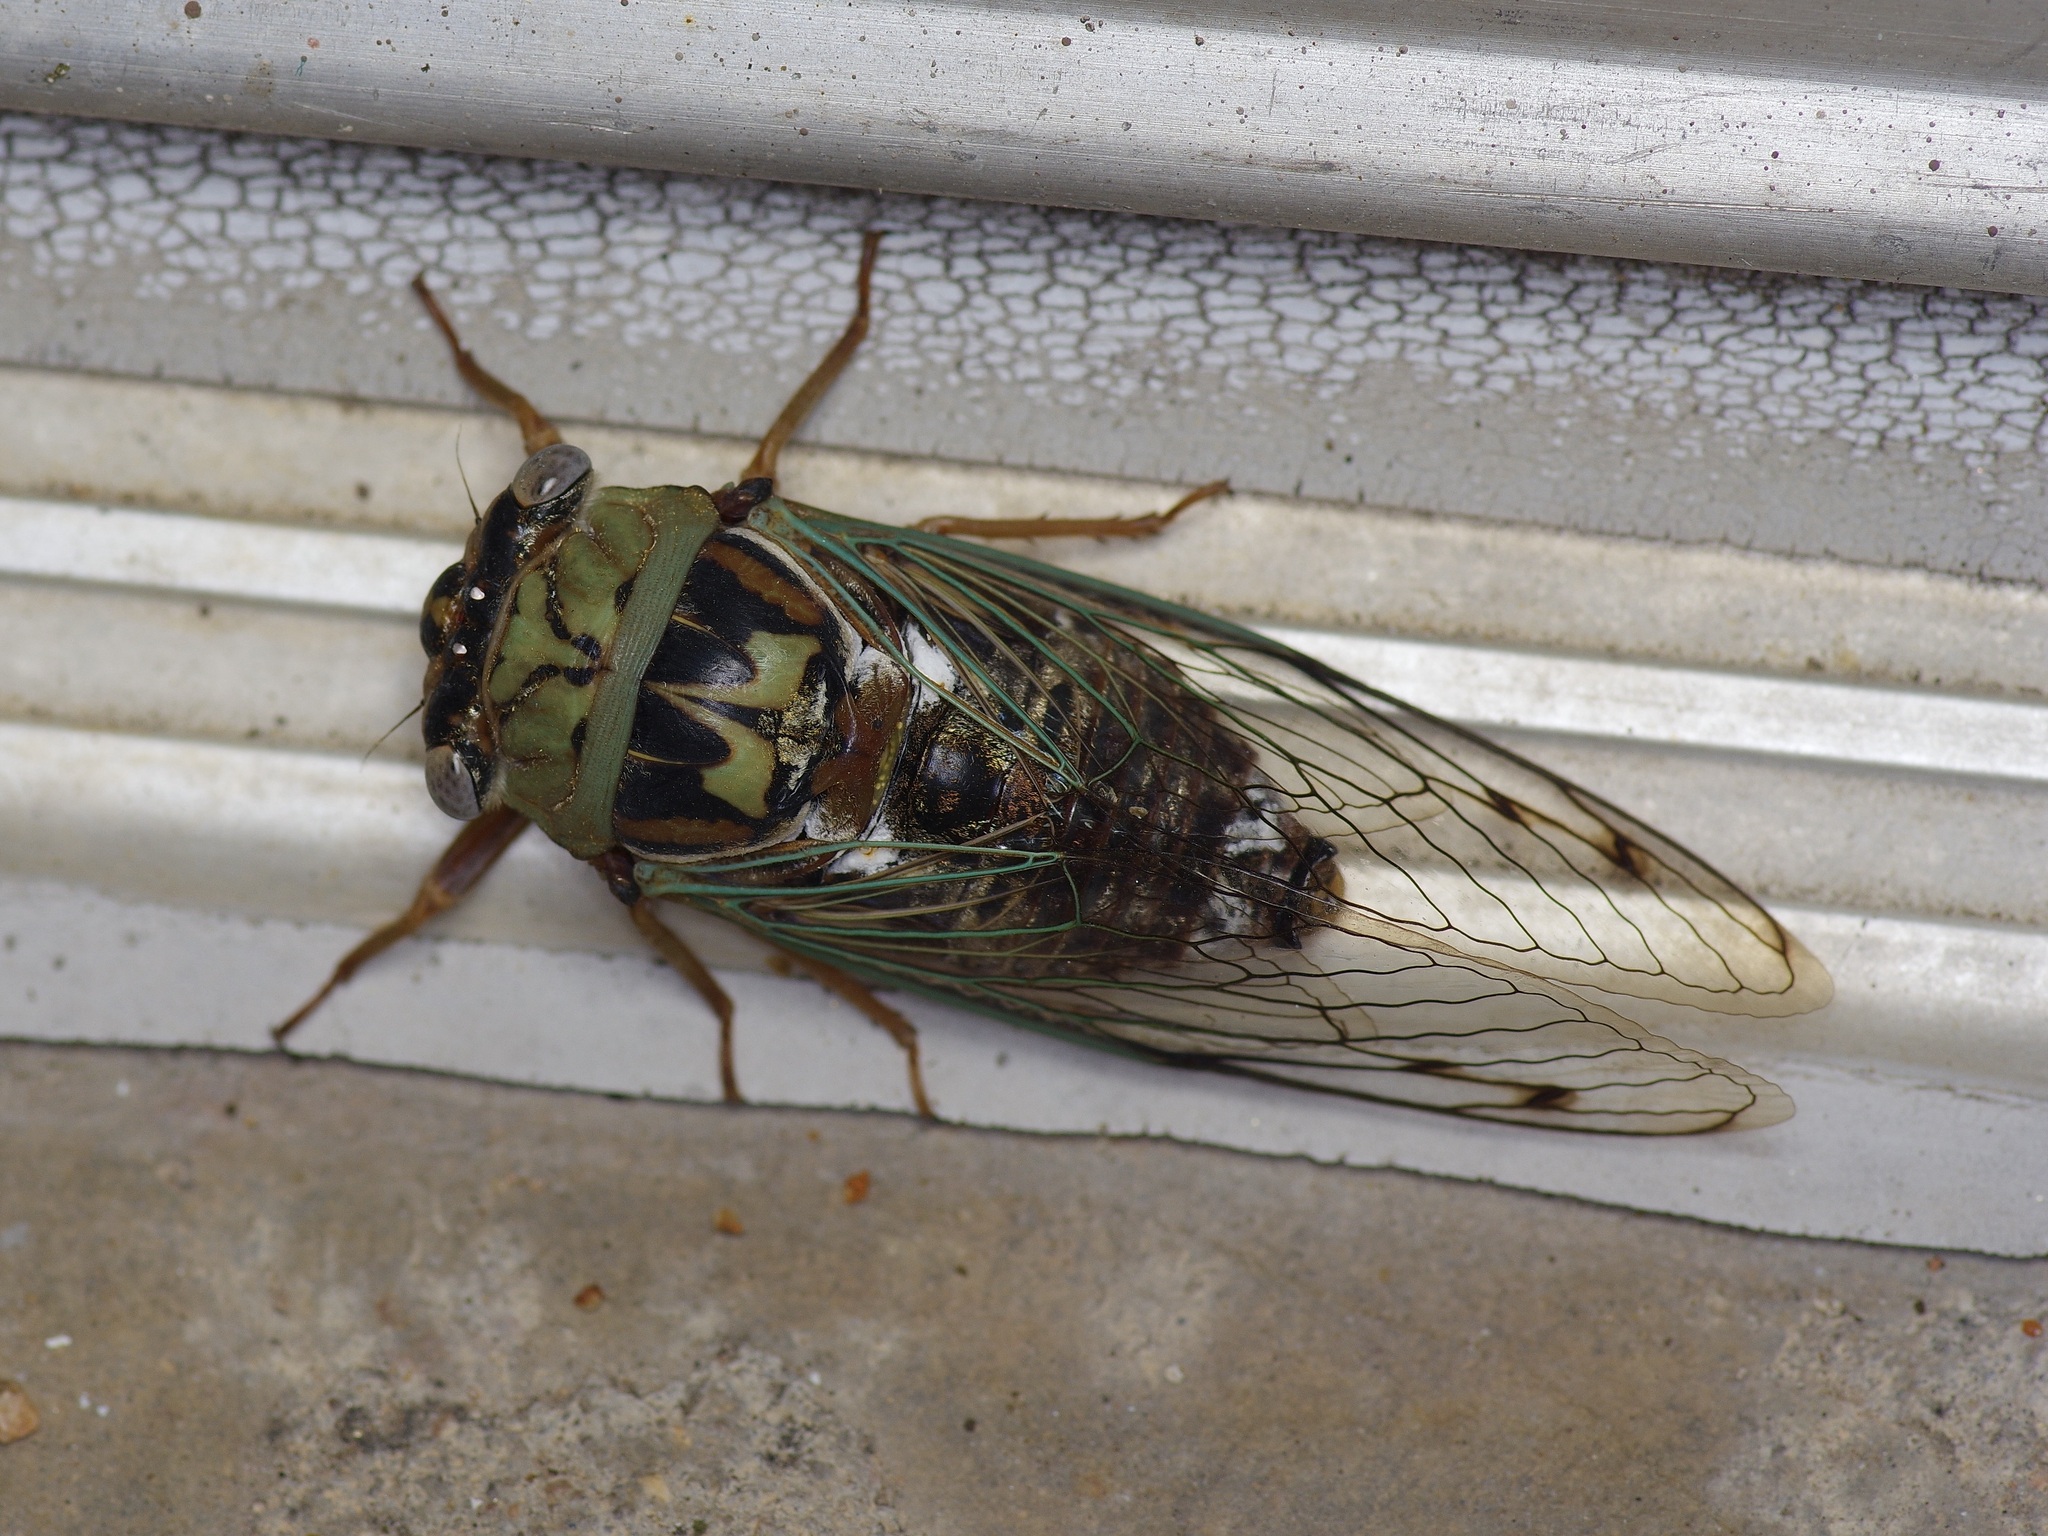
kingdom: Animalia
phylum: Arthropoda
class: Insecta
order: Hemiptera
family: Cicadidae
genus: Megatibicen
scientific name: Megatibicen resh
